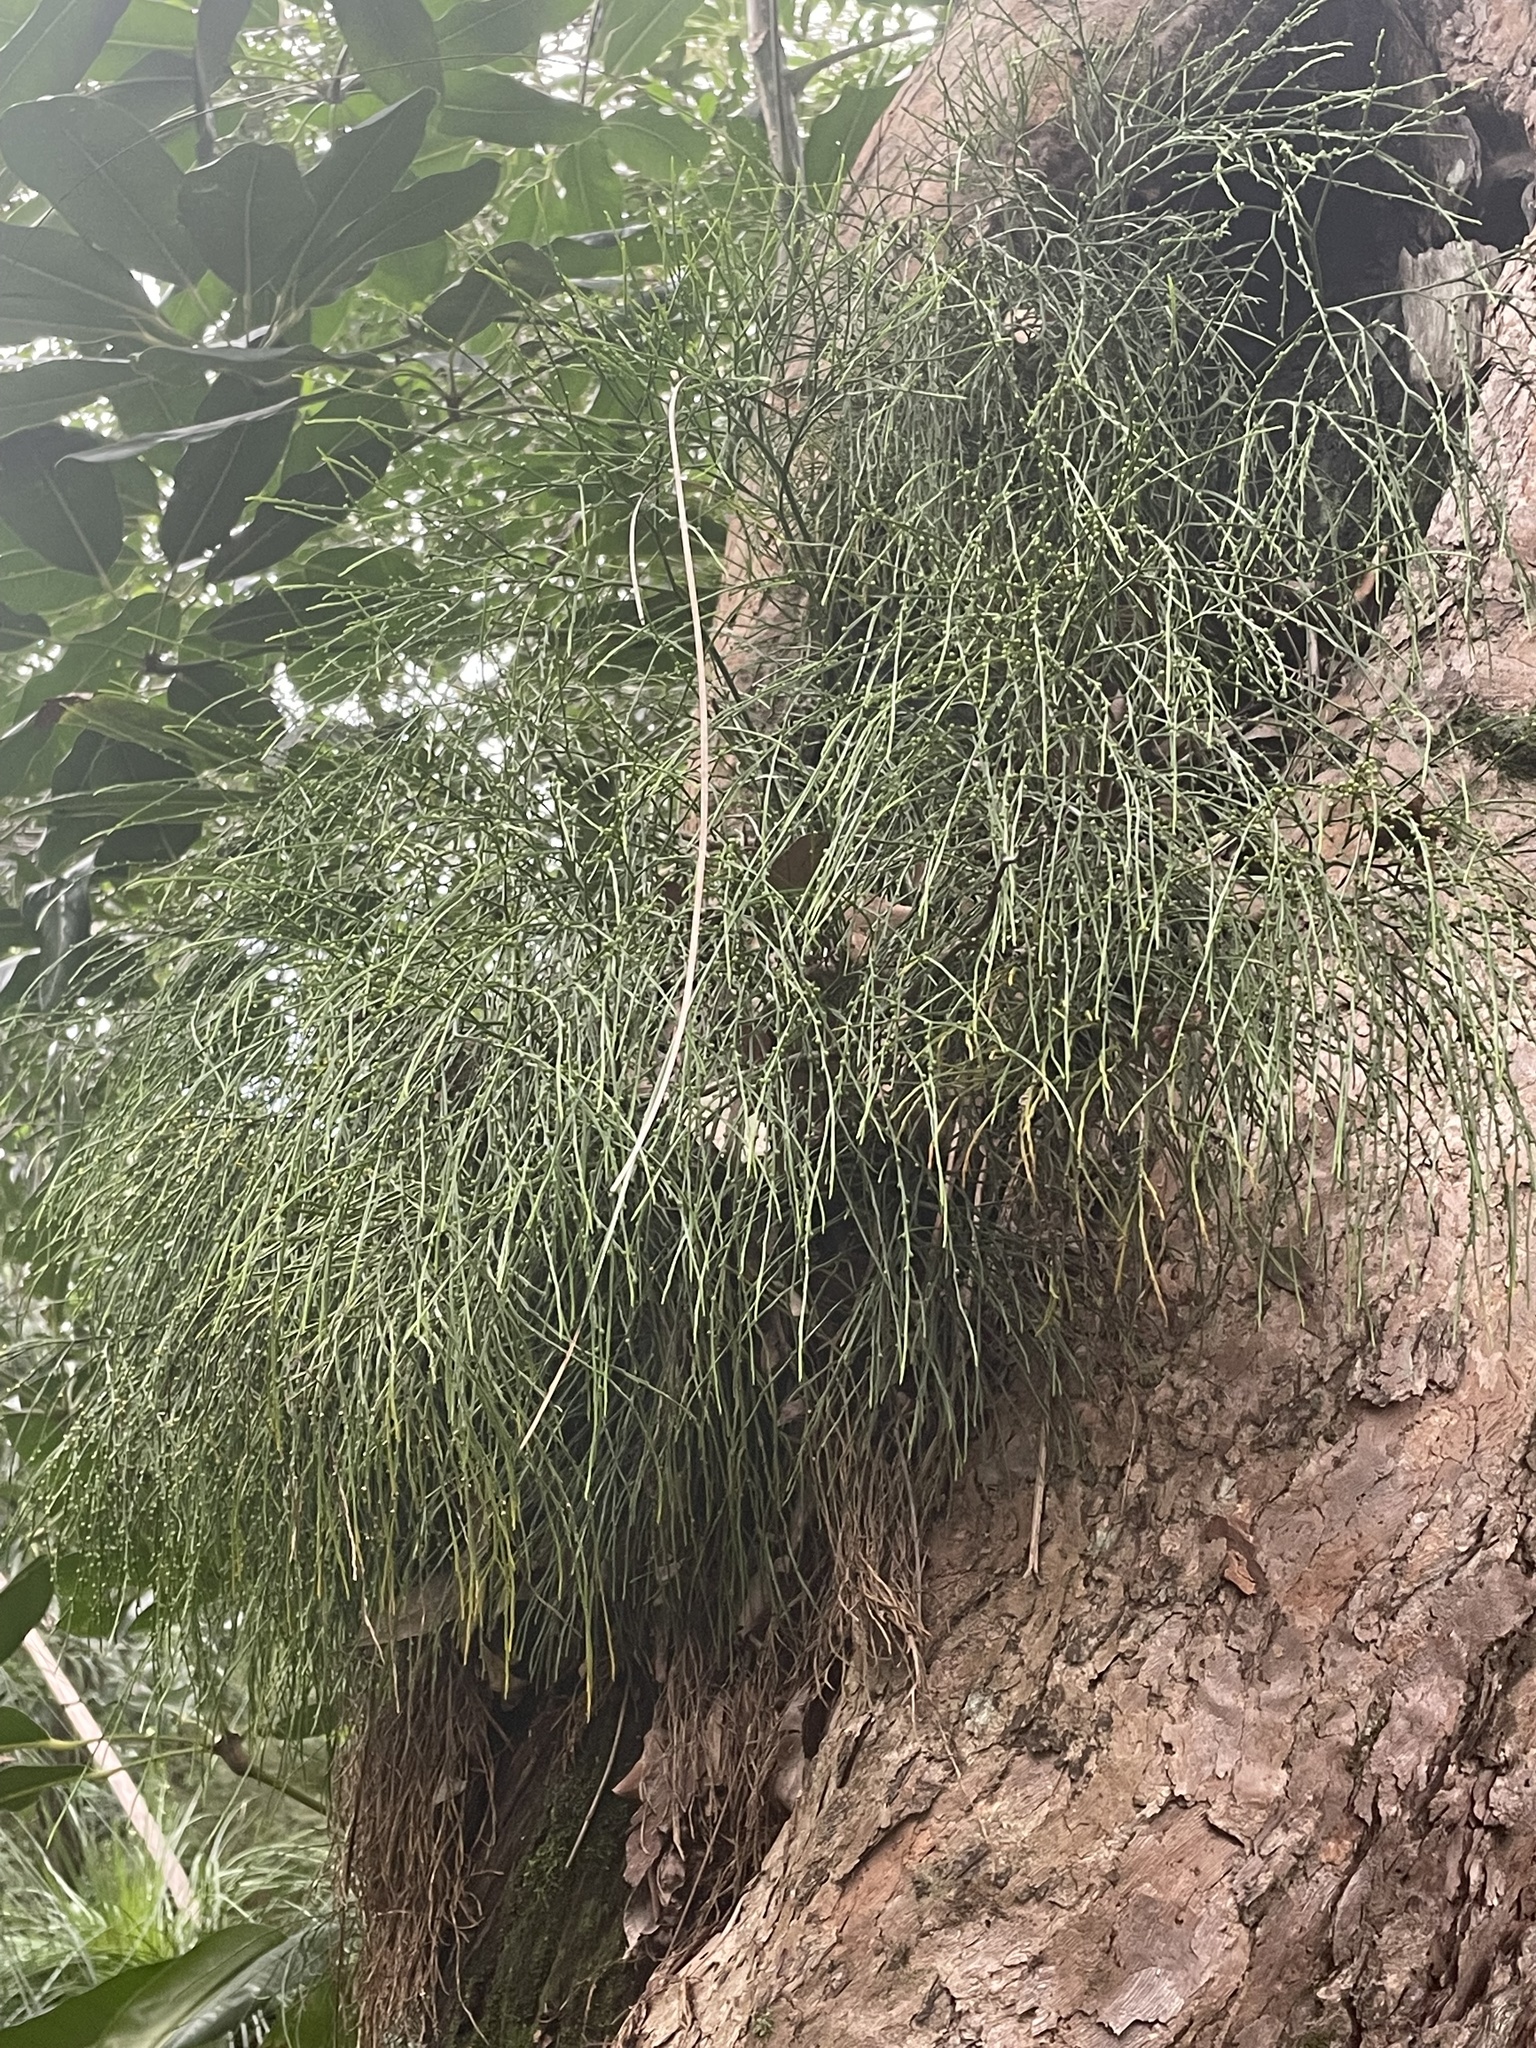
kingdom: Plantae
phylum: Tracheophyta
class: Polypodiopsida
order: Psilotales
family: Psilotaceae
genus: Psilotum
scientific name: Psilotum nudum
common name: Skeleton fork fern
